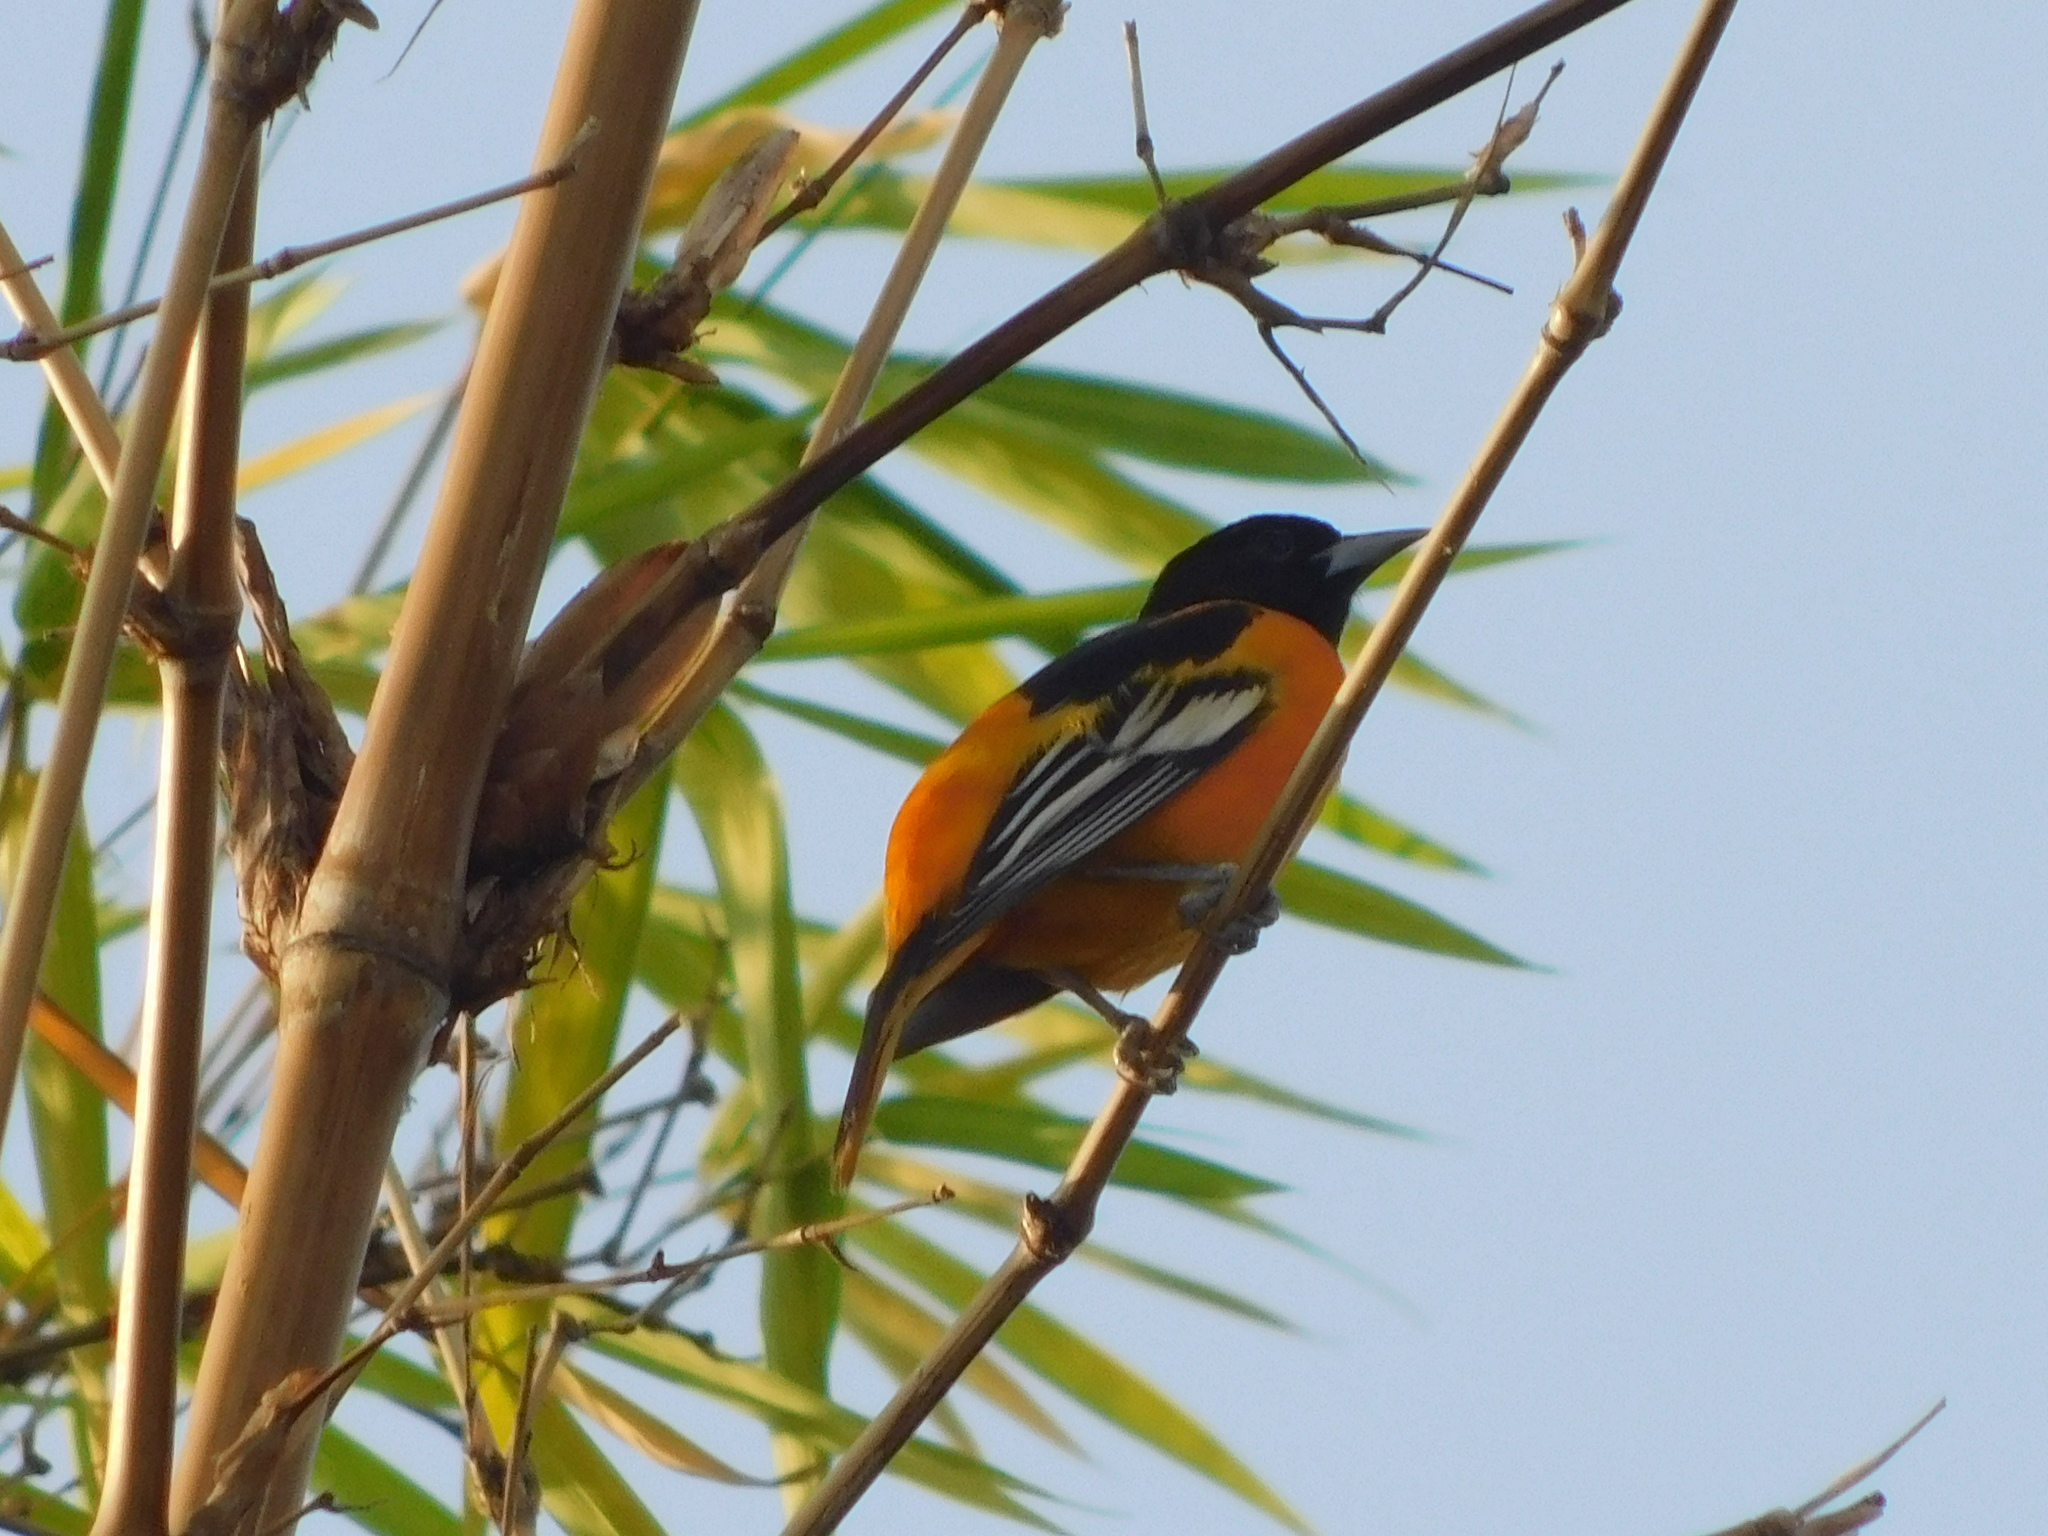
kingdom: Animalia
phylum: Chordata
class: Aves
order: Passeriformes
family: Icteridae
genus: Icterus
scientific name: Icterus galbula
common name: Baltimore oriole
